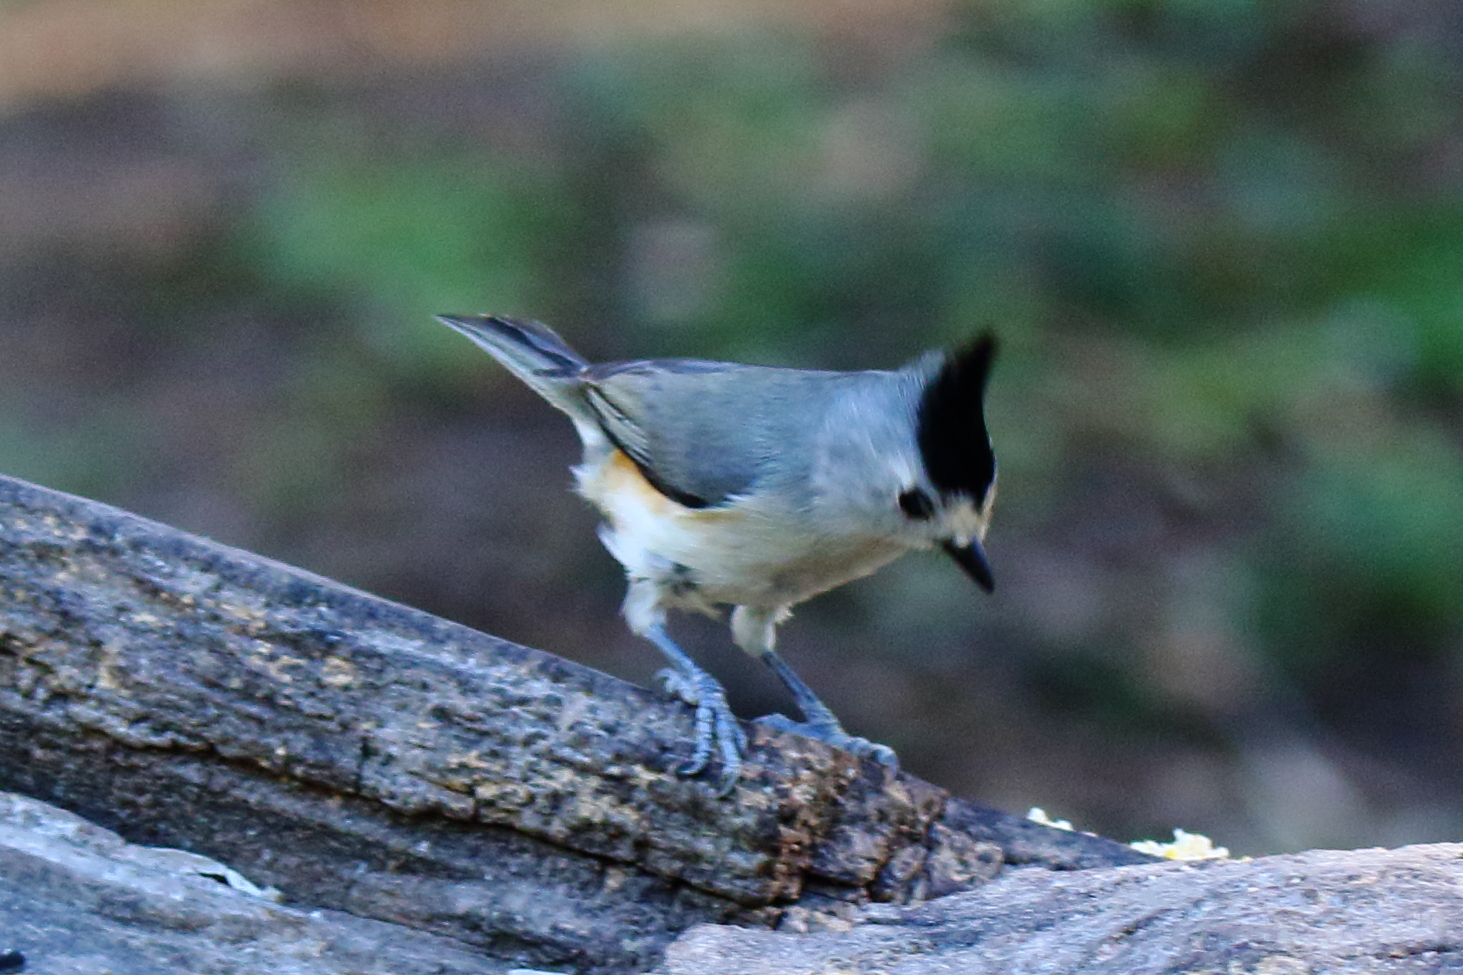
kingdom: Animalia
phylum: Chordata
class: Aves
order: Passeriformes
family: Paridae
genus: Baeolophus
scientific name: Baeolophus atricristatus
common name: Black-crested titmouse
